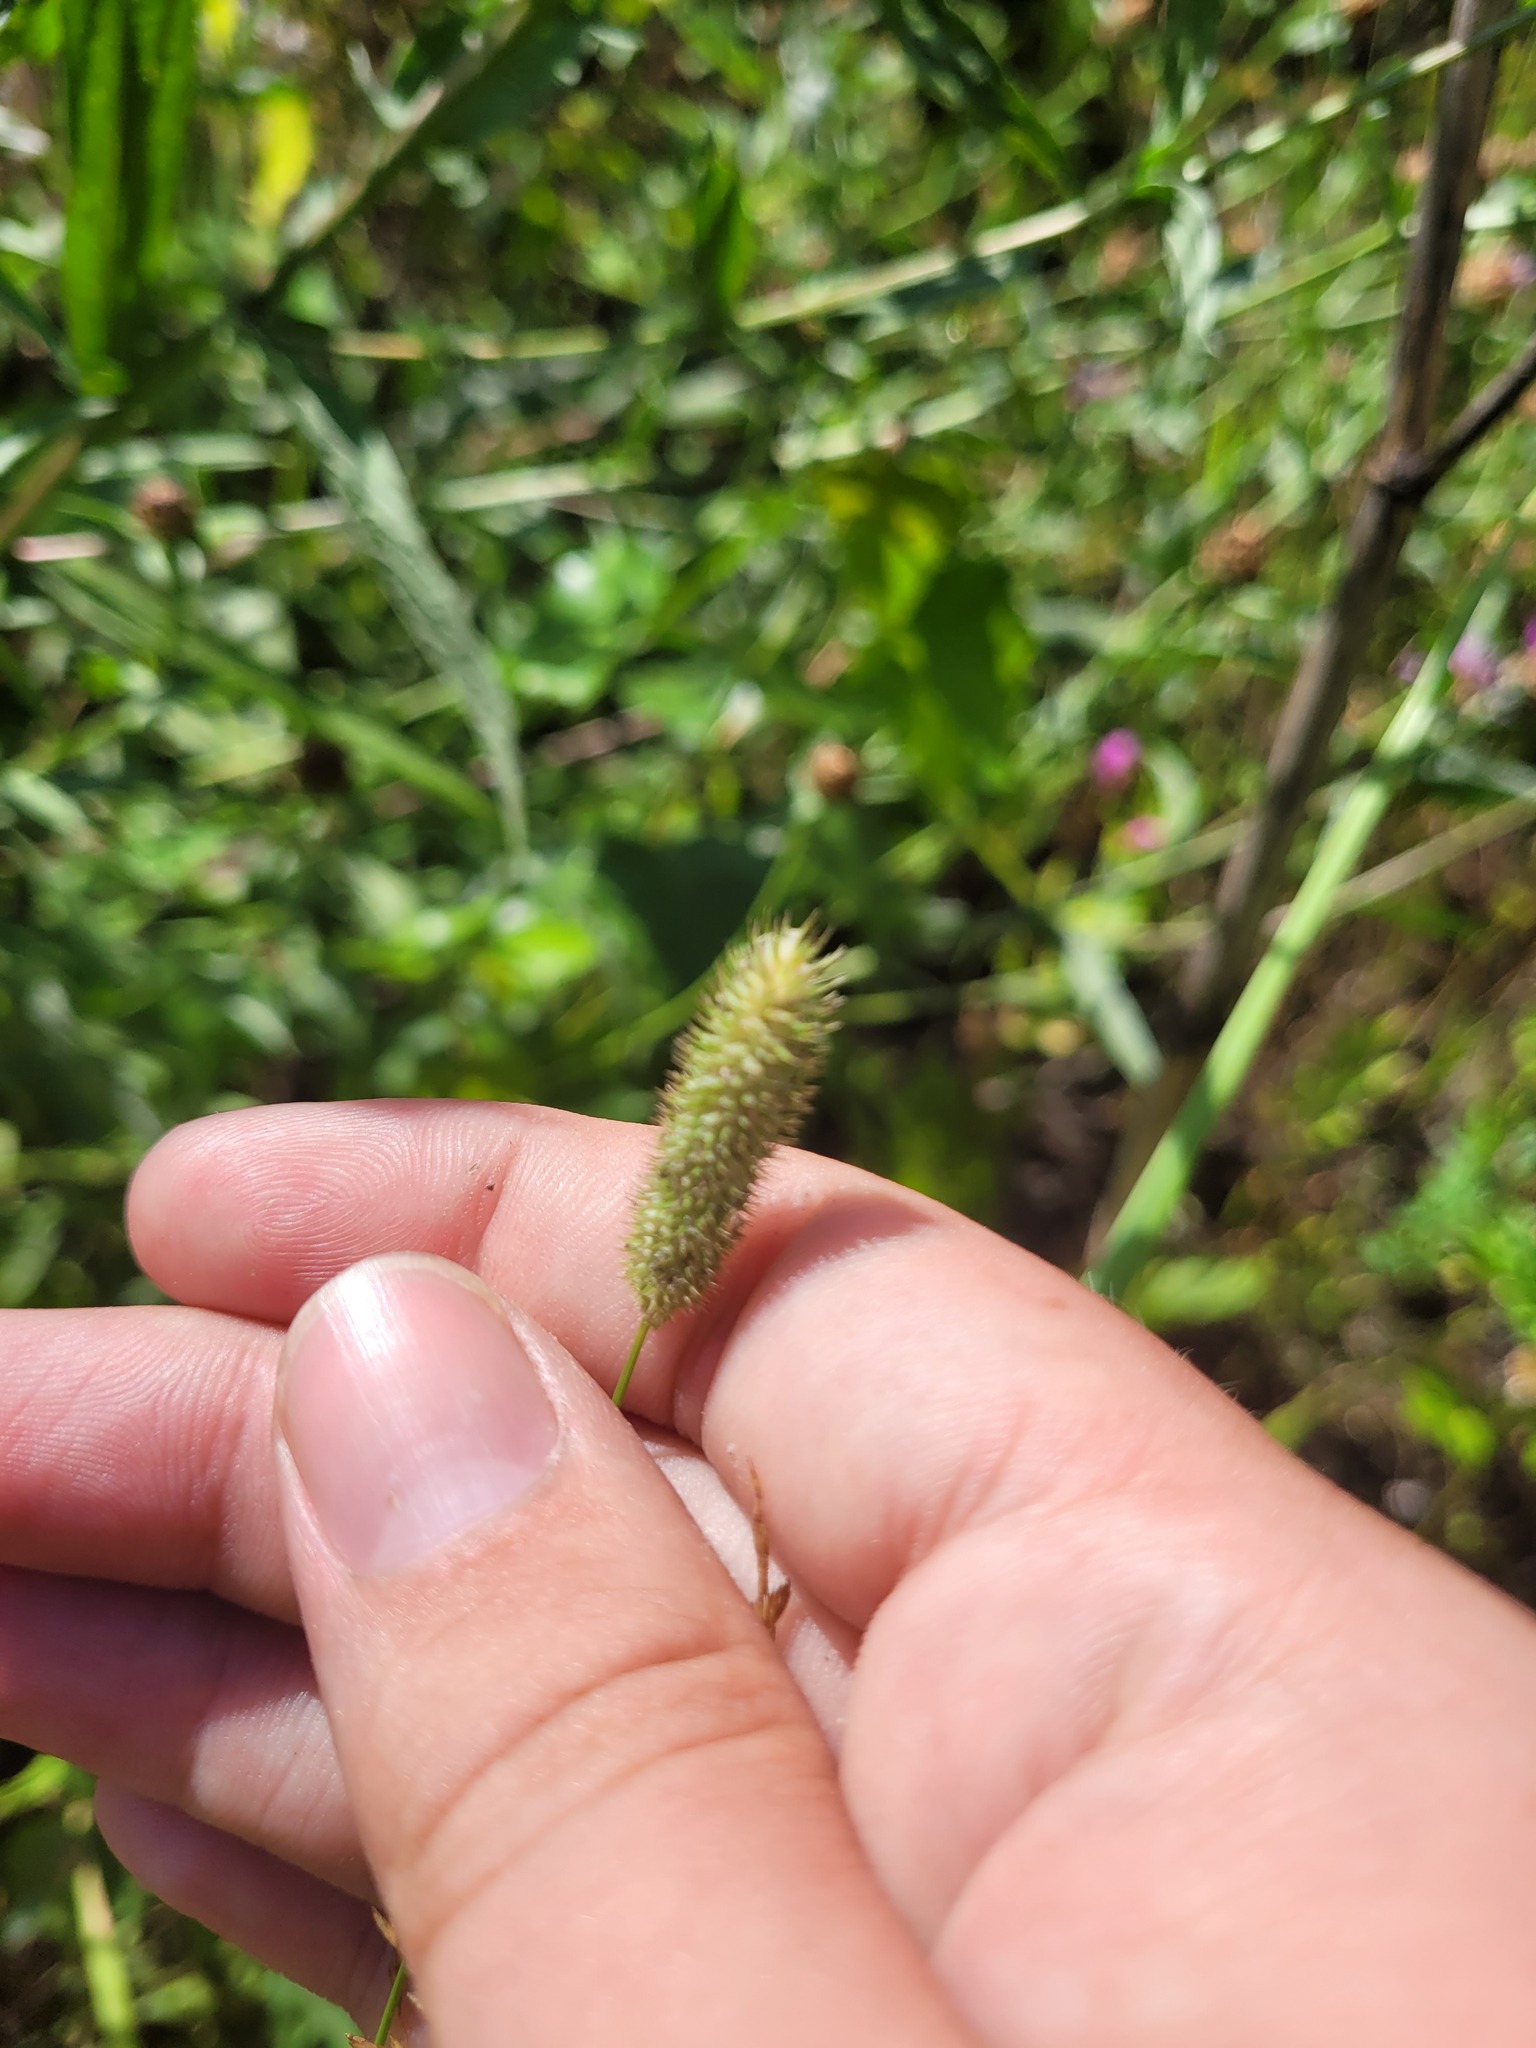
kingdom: Plantae
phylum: Tracheophyta
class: Liliopsida
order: Poales
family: Poaceae
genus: Phleum
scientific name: Phleum pratense
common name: Timothy grass
